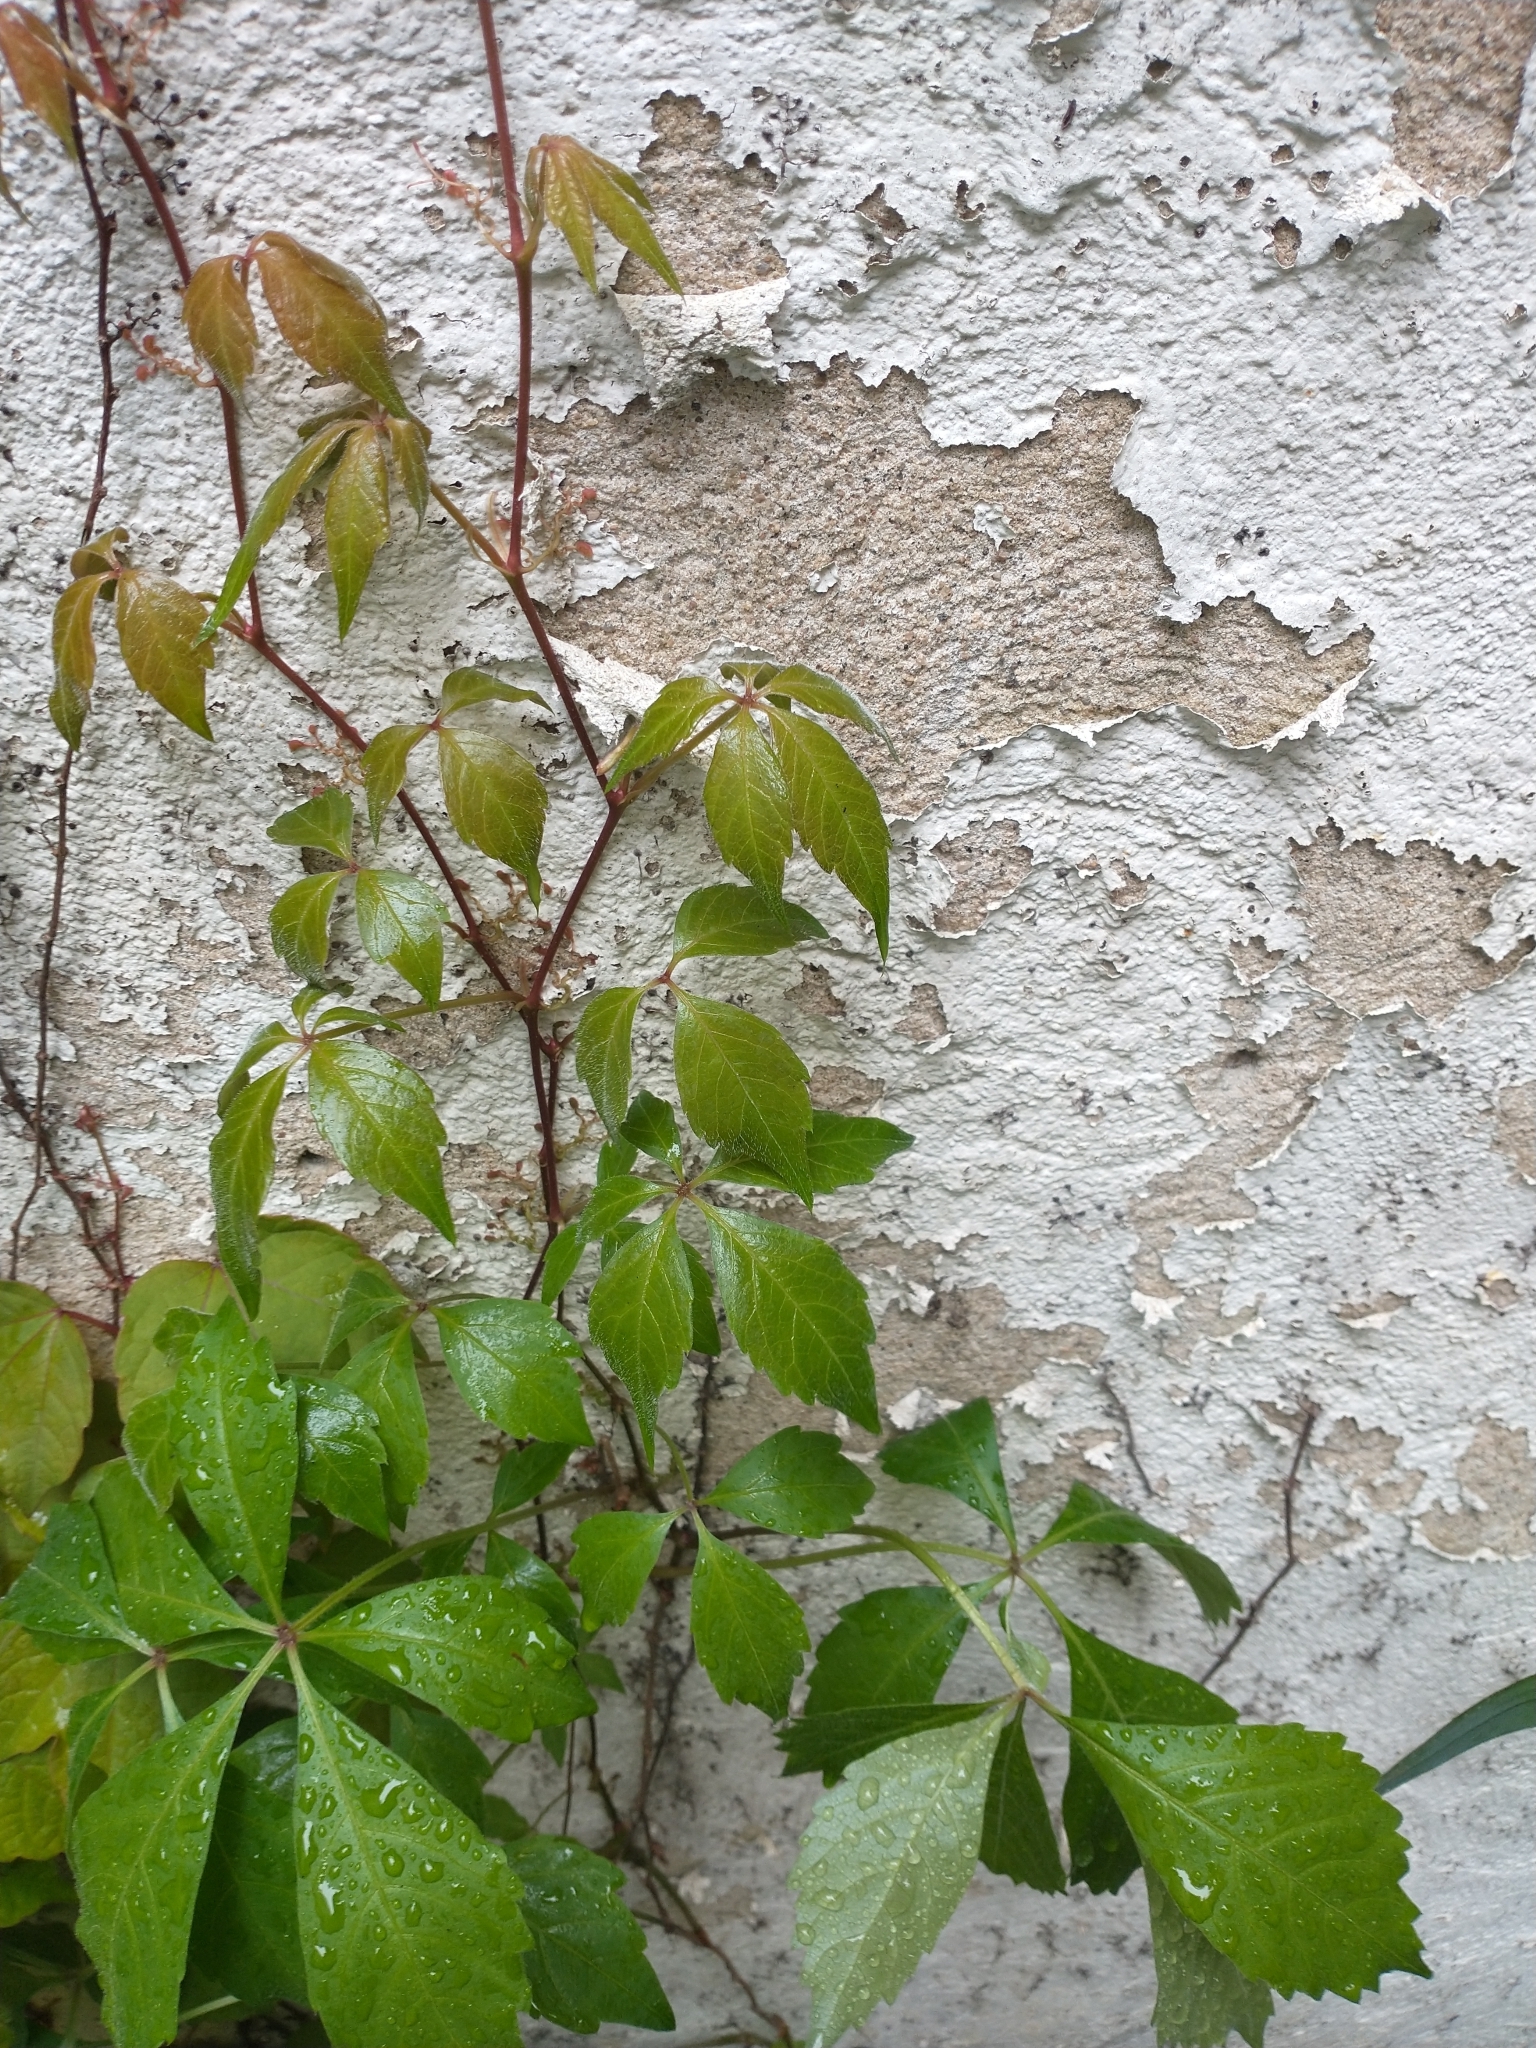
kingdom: Plantae
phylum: Tracheophyta
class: Magnoliopsida
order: Vitales
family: Vitaceae
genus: Parthenocissus
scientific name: Parthenocissus quinquefolia
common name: Virginia-creeper
